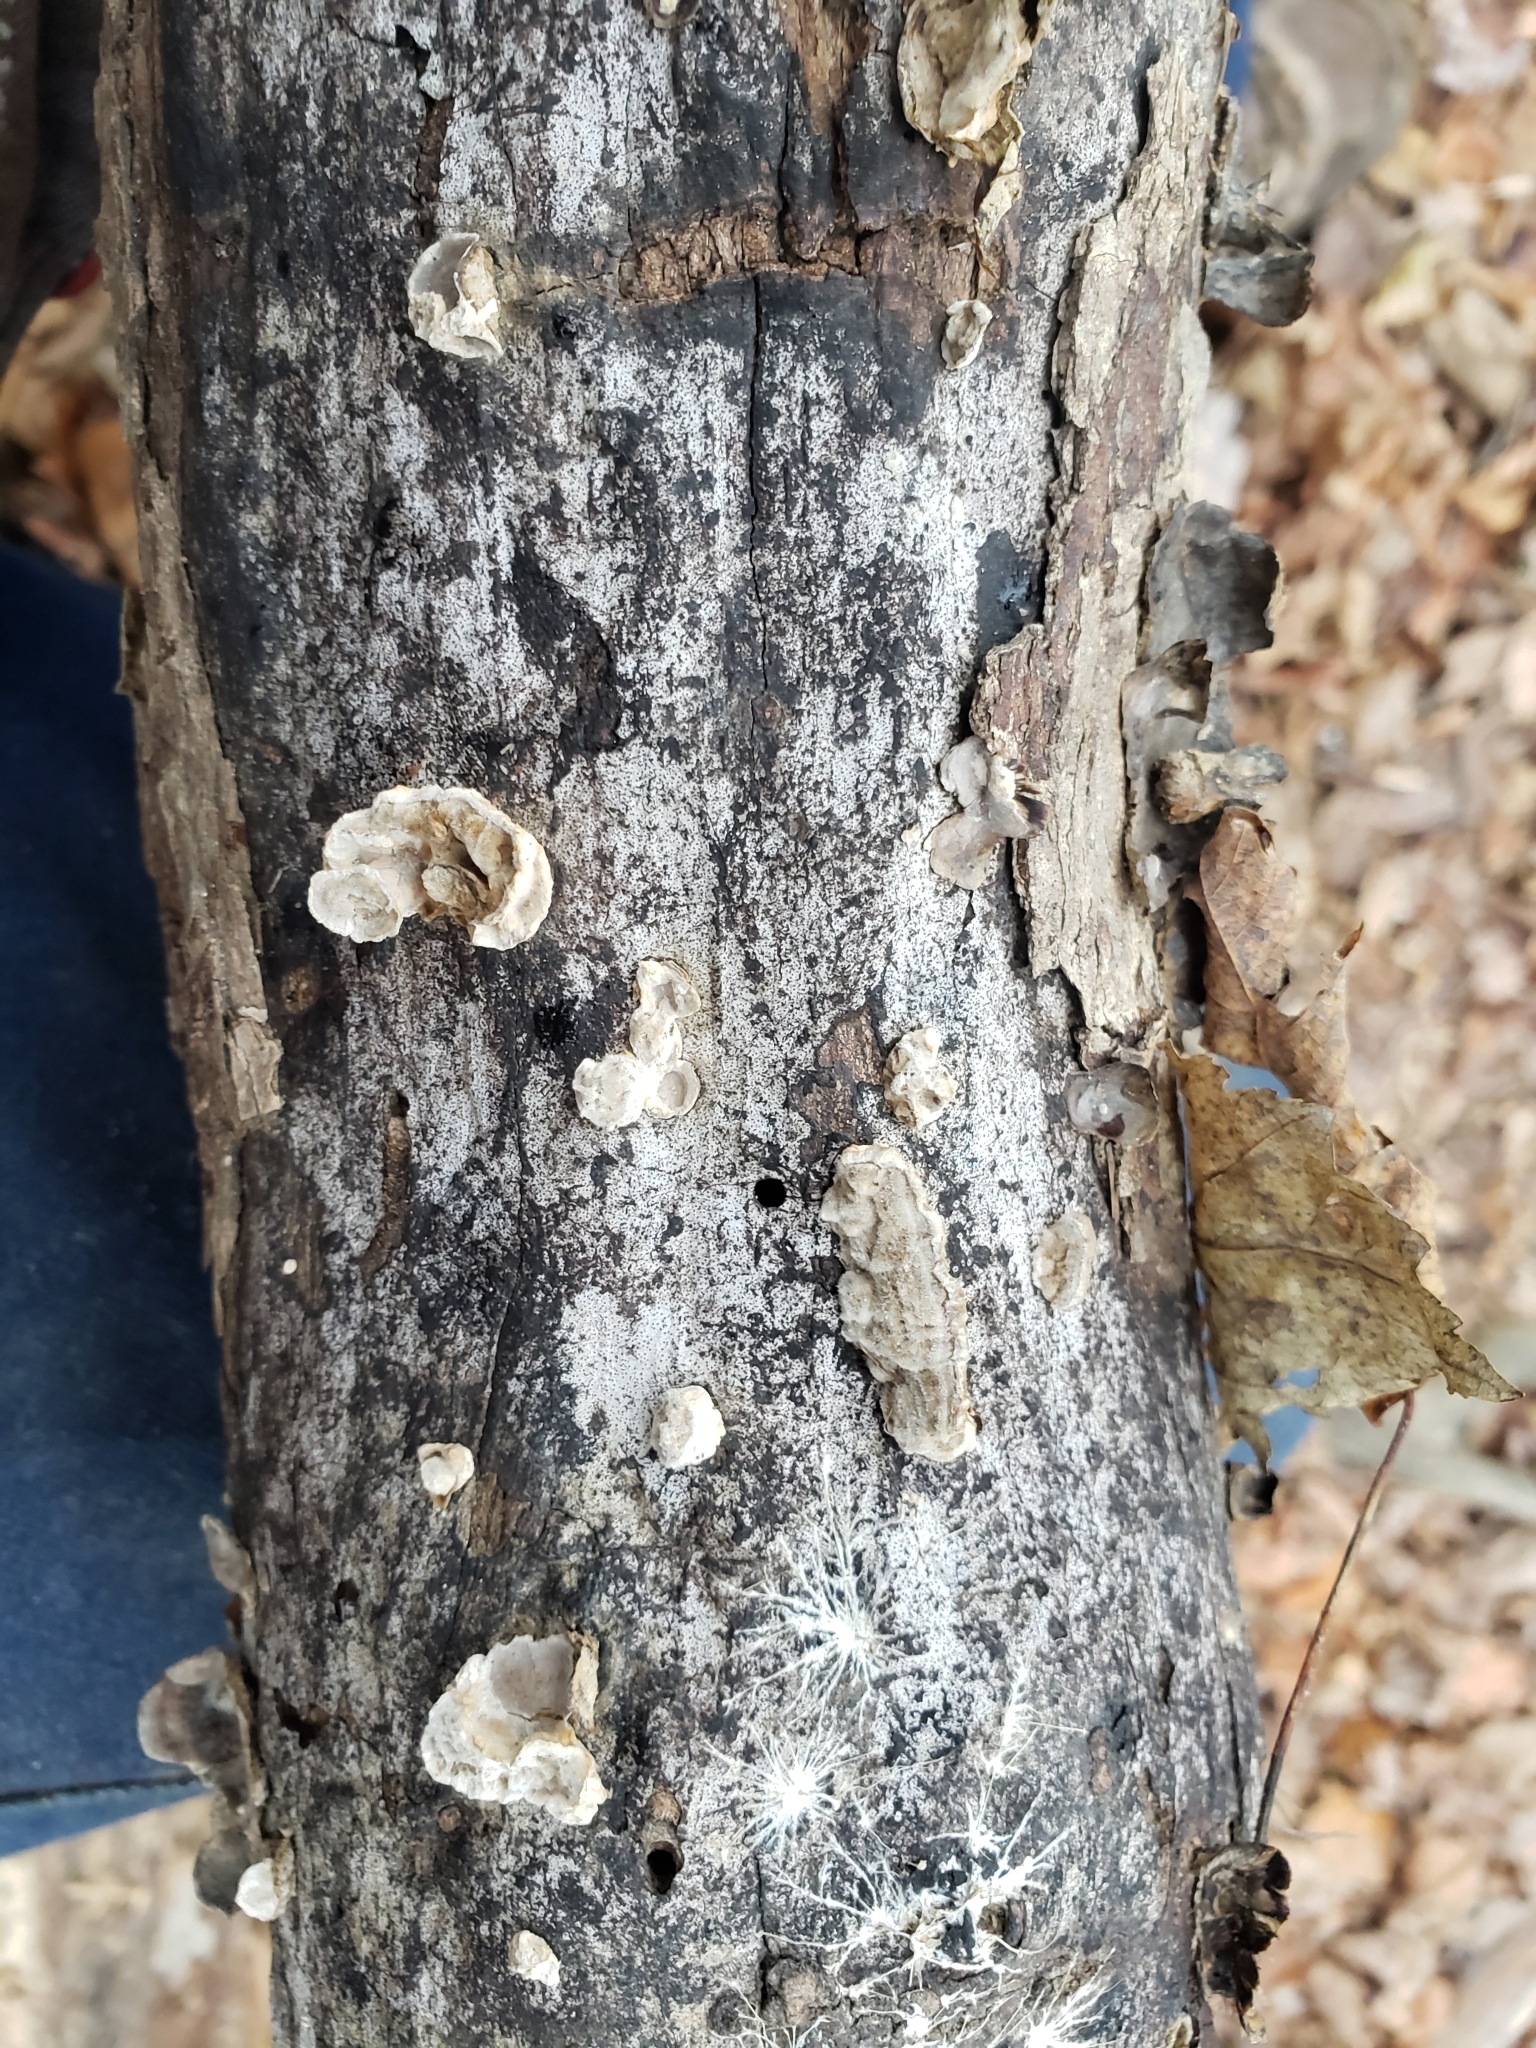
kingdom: Fungi
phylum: Ascomycota
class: Sordariomycetes
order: Xylariales
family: Graphostromataceae
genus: Biscogniauxia
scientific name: Biscogniauxia atropunctata
